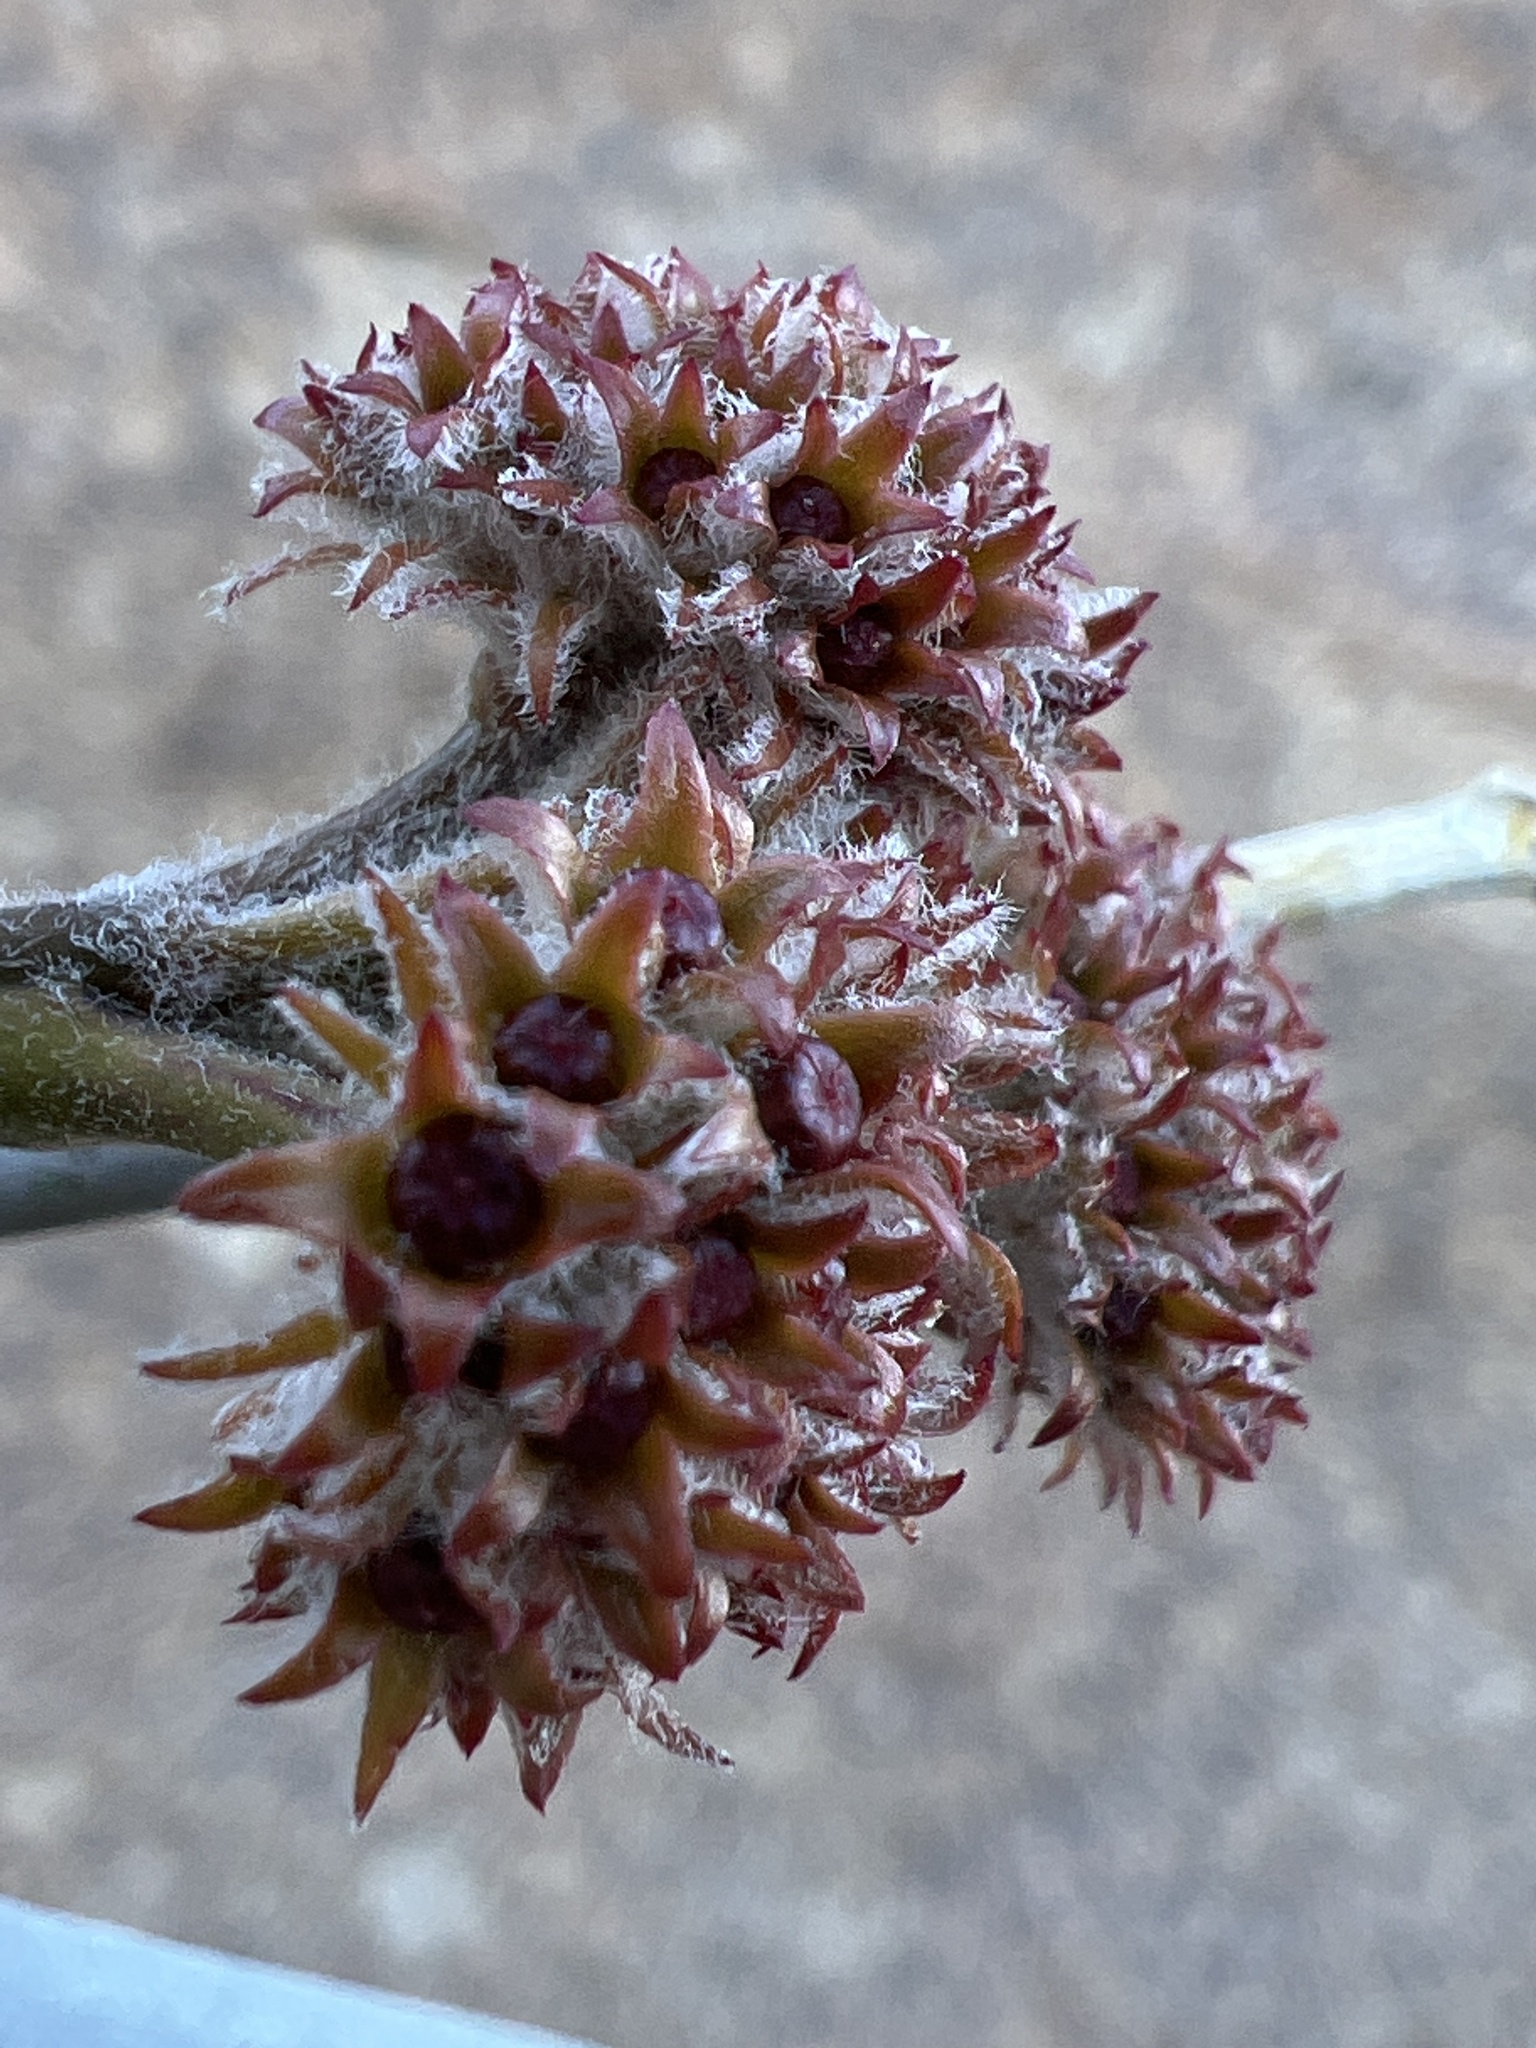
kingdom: Plantae
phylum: Tracheophyta
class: Magnoliopsida
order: Gentianales
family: Apocynaceae
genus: Asclepias
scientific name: Asclepias albicans
